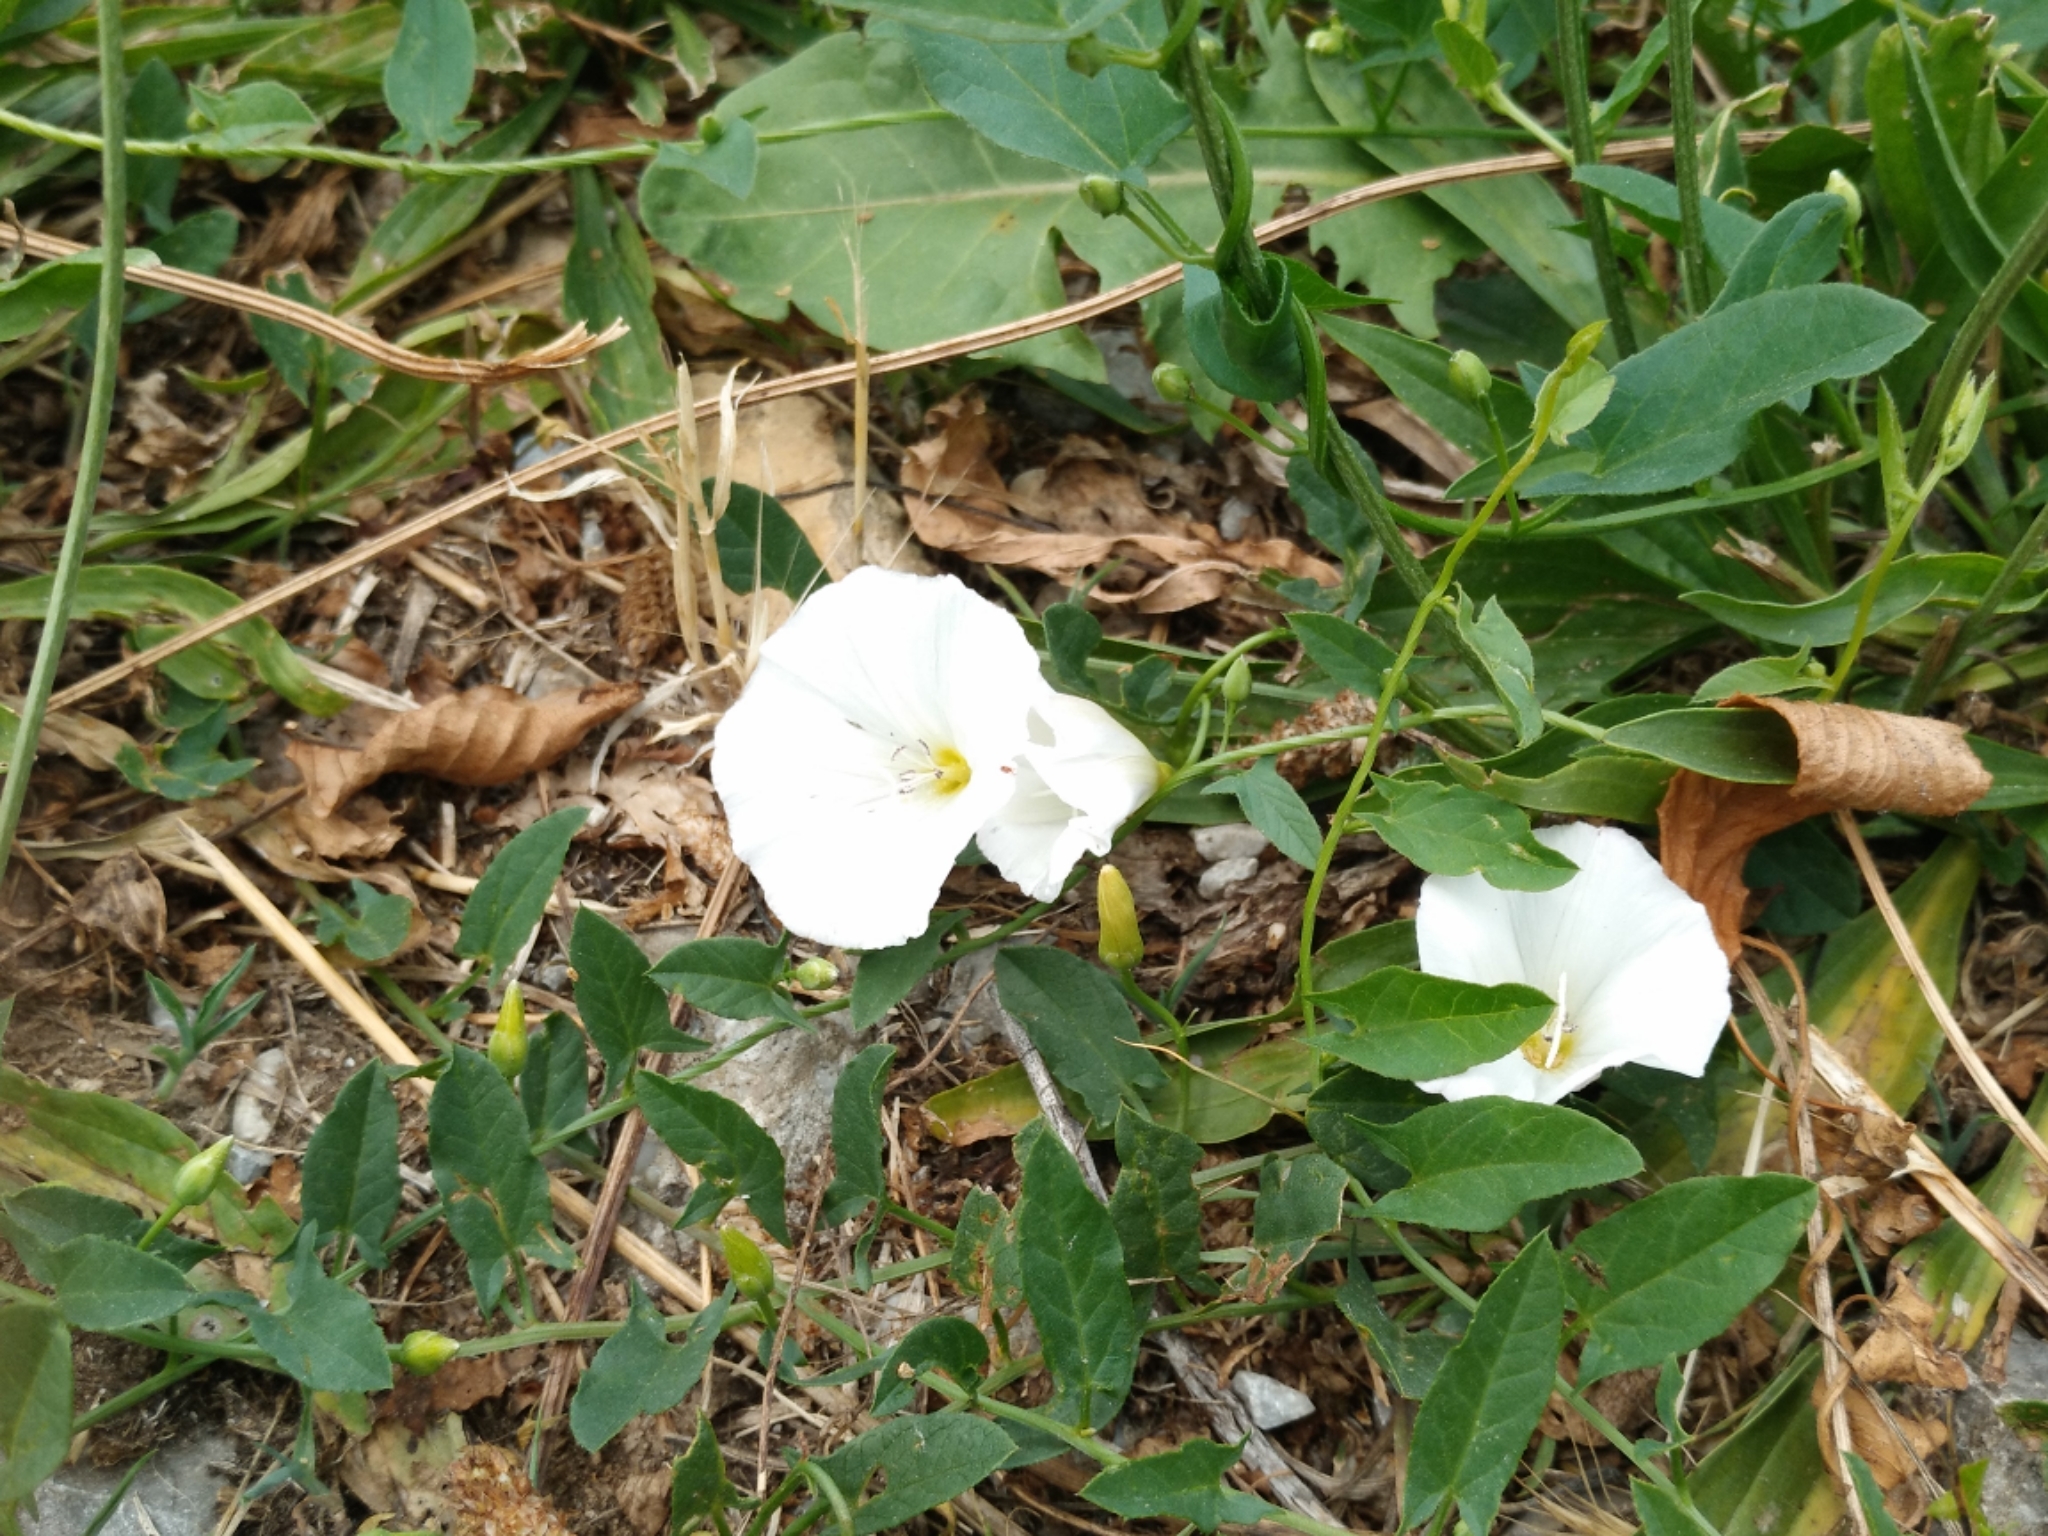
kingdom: Plantae
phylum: Tracheophyta
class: Magnoliopsida
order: Solanales
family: Convolvulaceae
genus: Convolvulus
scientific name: Convolvulus arvensis
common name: Field bindweed
